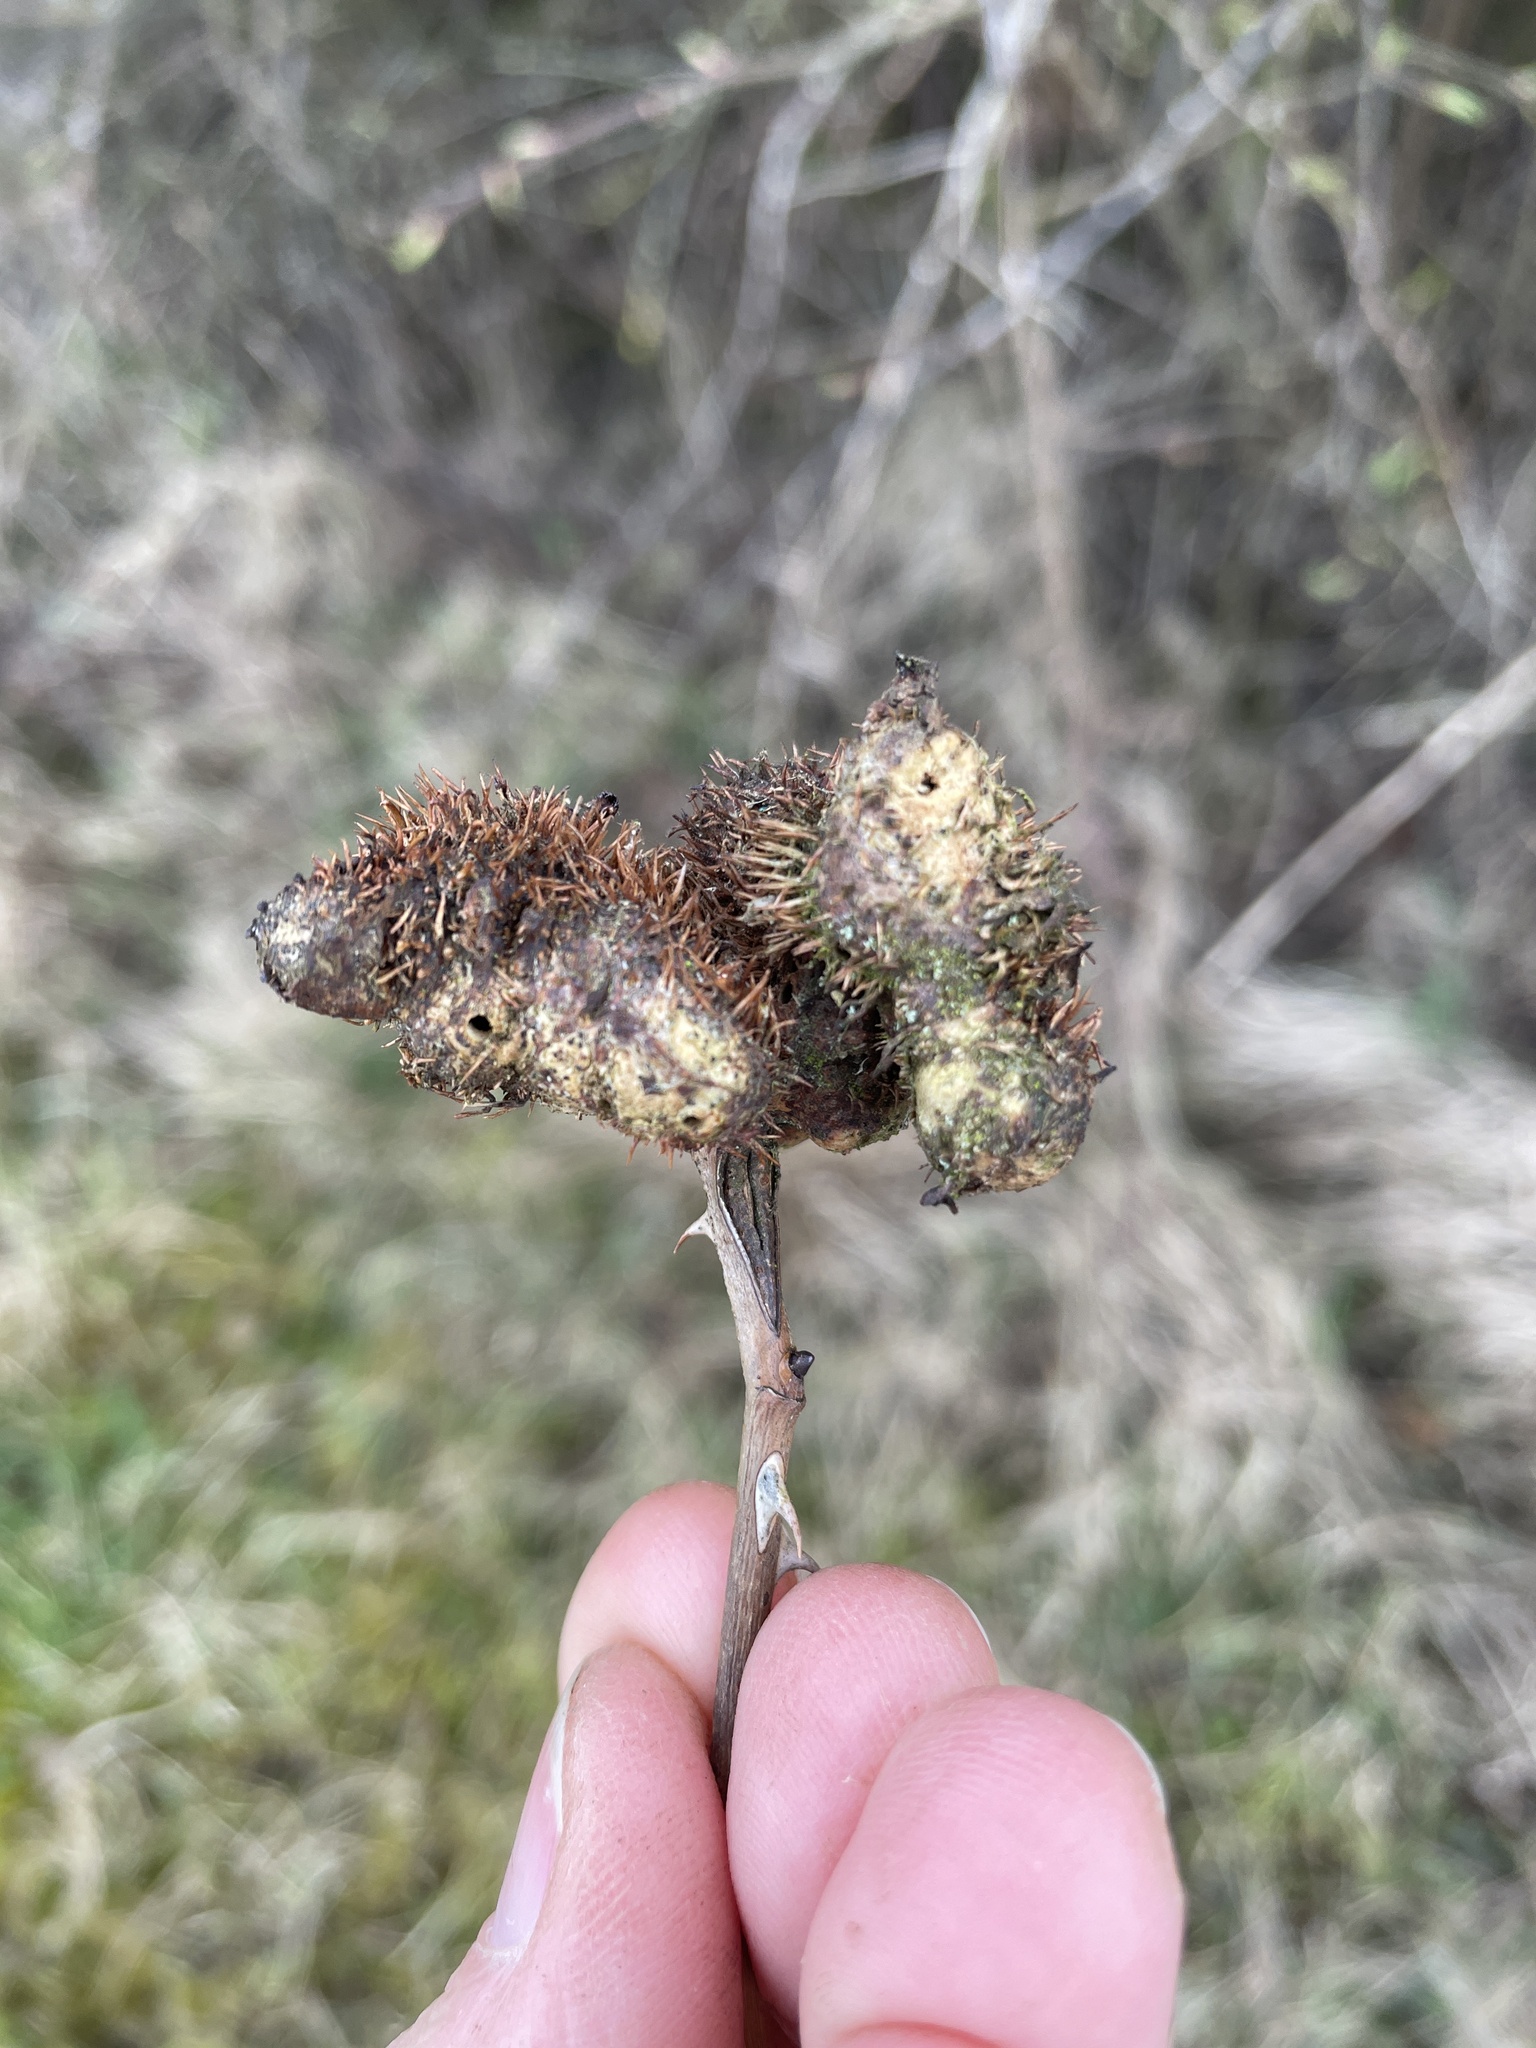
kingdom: Animalia
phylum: Arthropoda
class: Insecta
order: Hymenoptera
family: Cynipidae
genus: Diplolepis
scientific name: Diplolepis mayri
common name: Gall wasp
